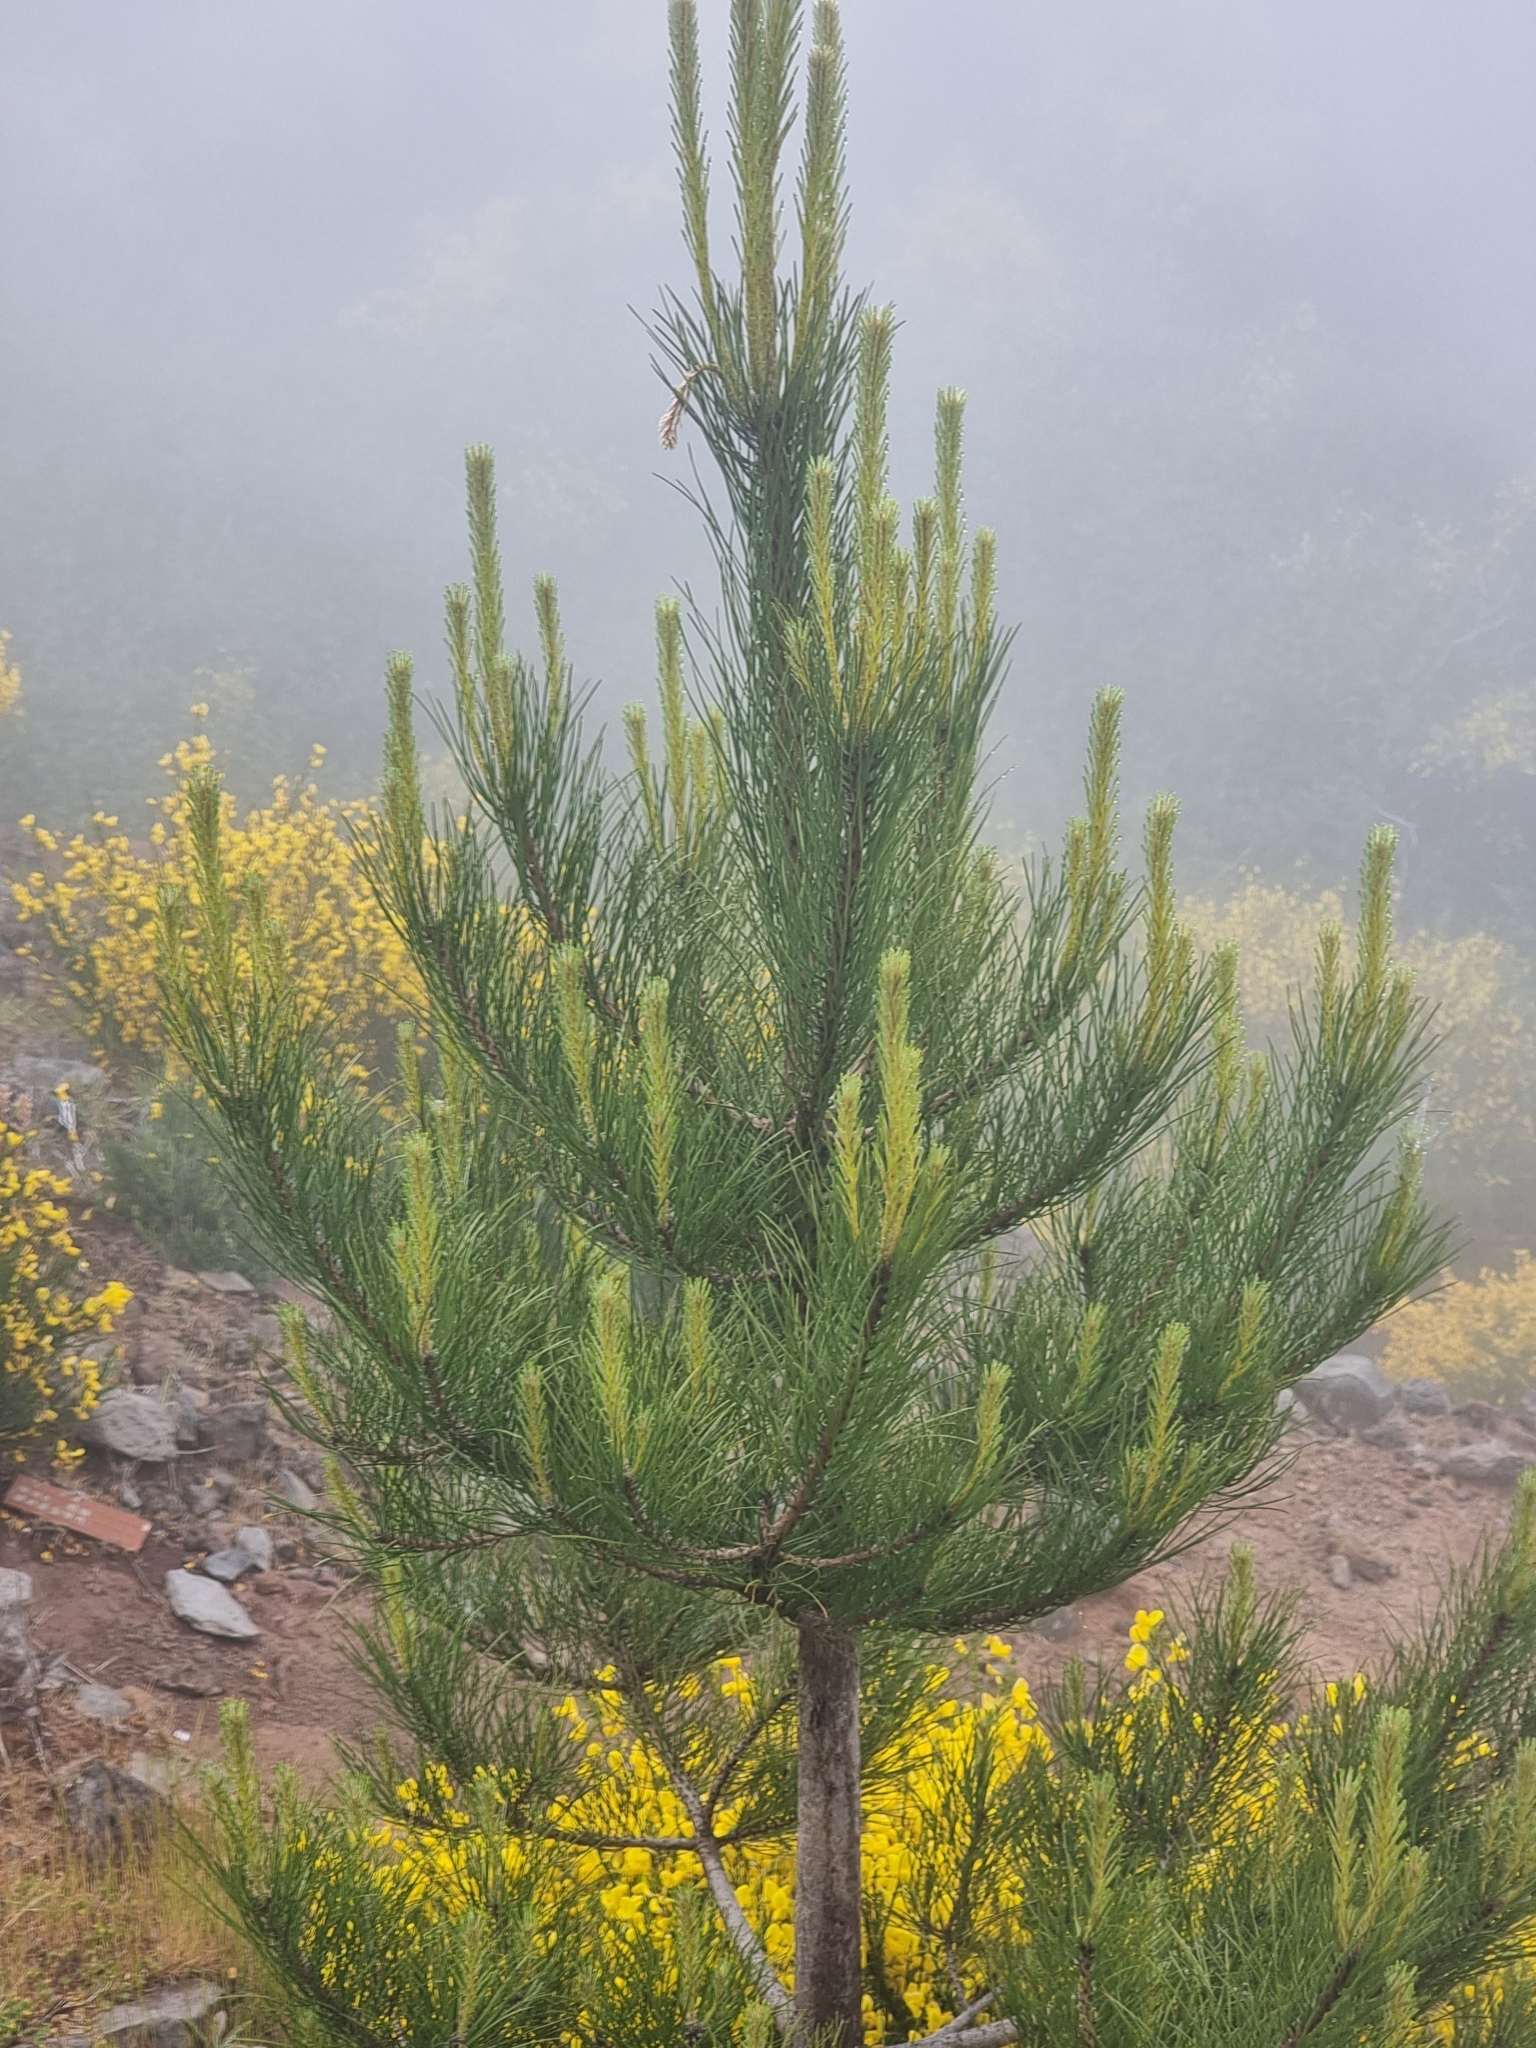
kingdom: Plantae
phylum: Tracheophyta
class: Pinopsida
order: Pinales
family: Pinaceae
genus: Pinus
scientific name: Pinus pinaster
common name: Maritime pine
